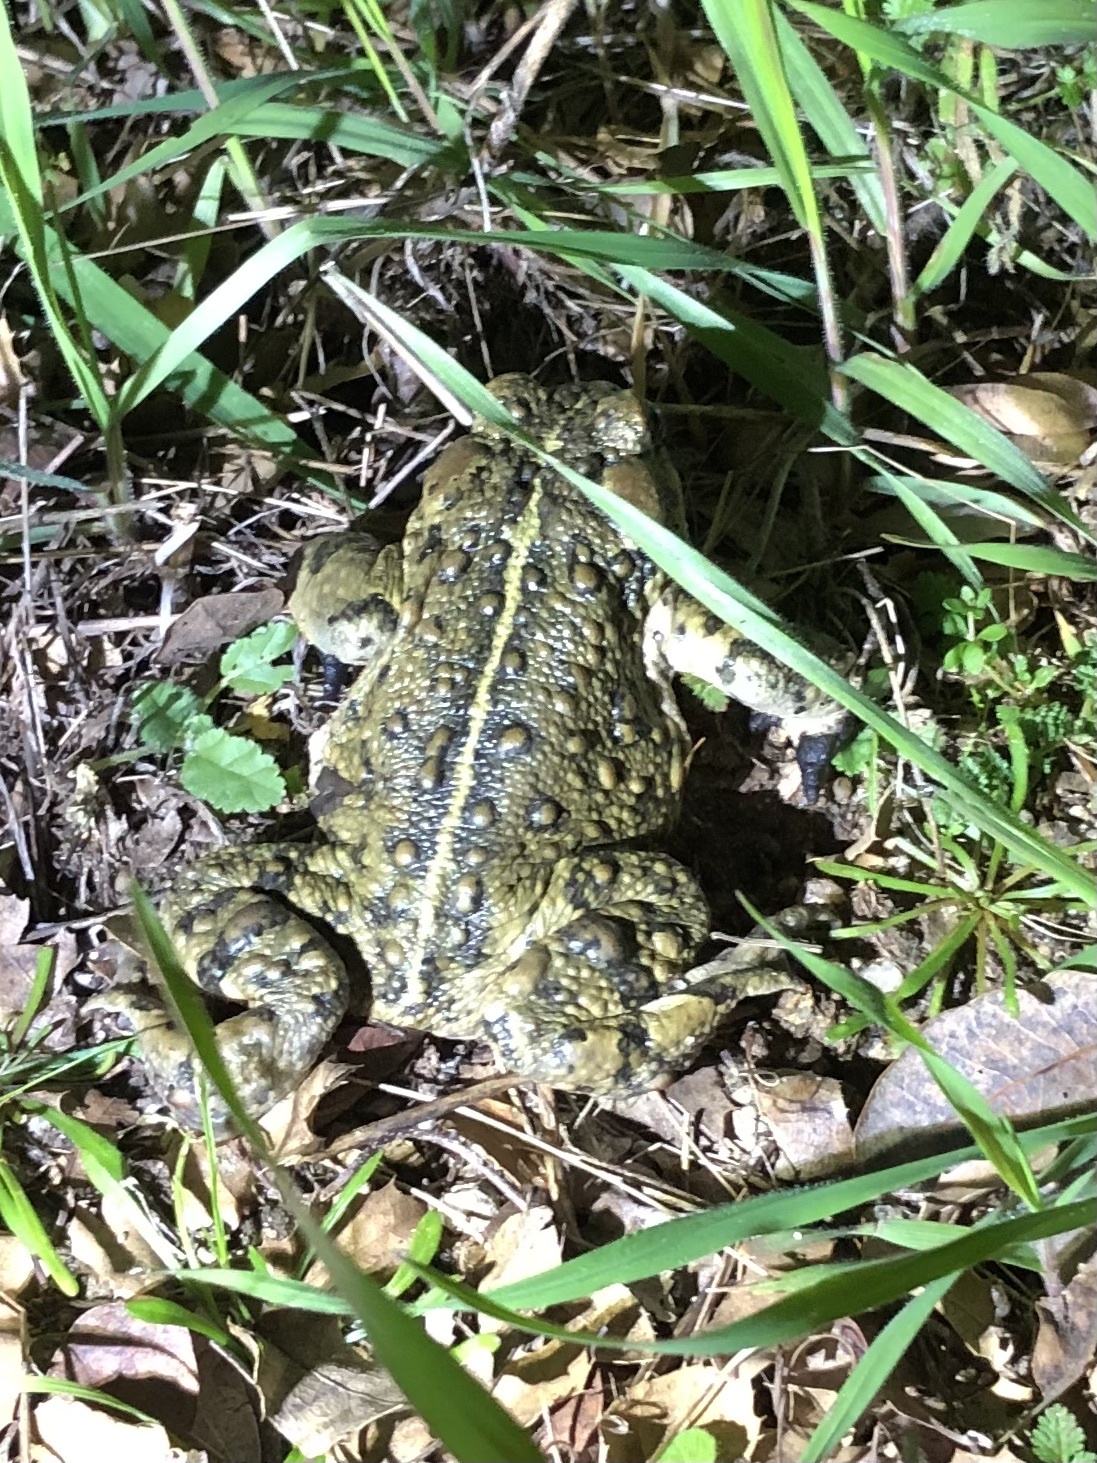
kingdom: Animalia
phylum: Chordata
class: Amphibia
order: Anura
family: Bufonidae
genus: Anaxyrus
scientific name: Anaxyrus boreas
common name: Western toad
